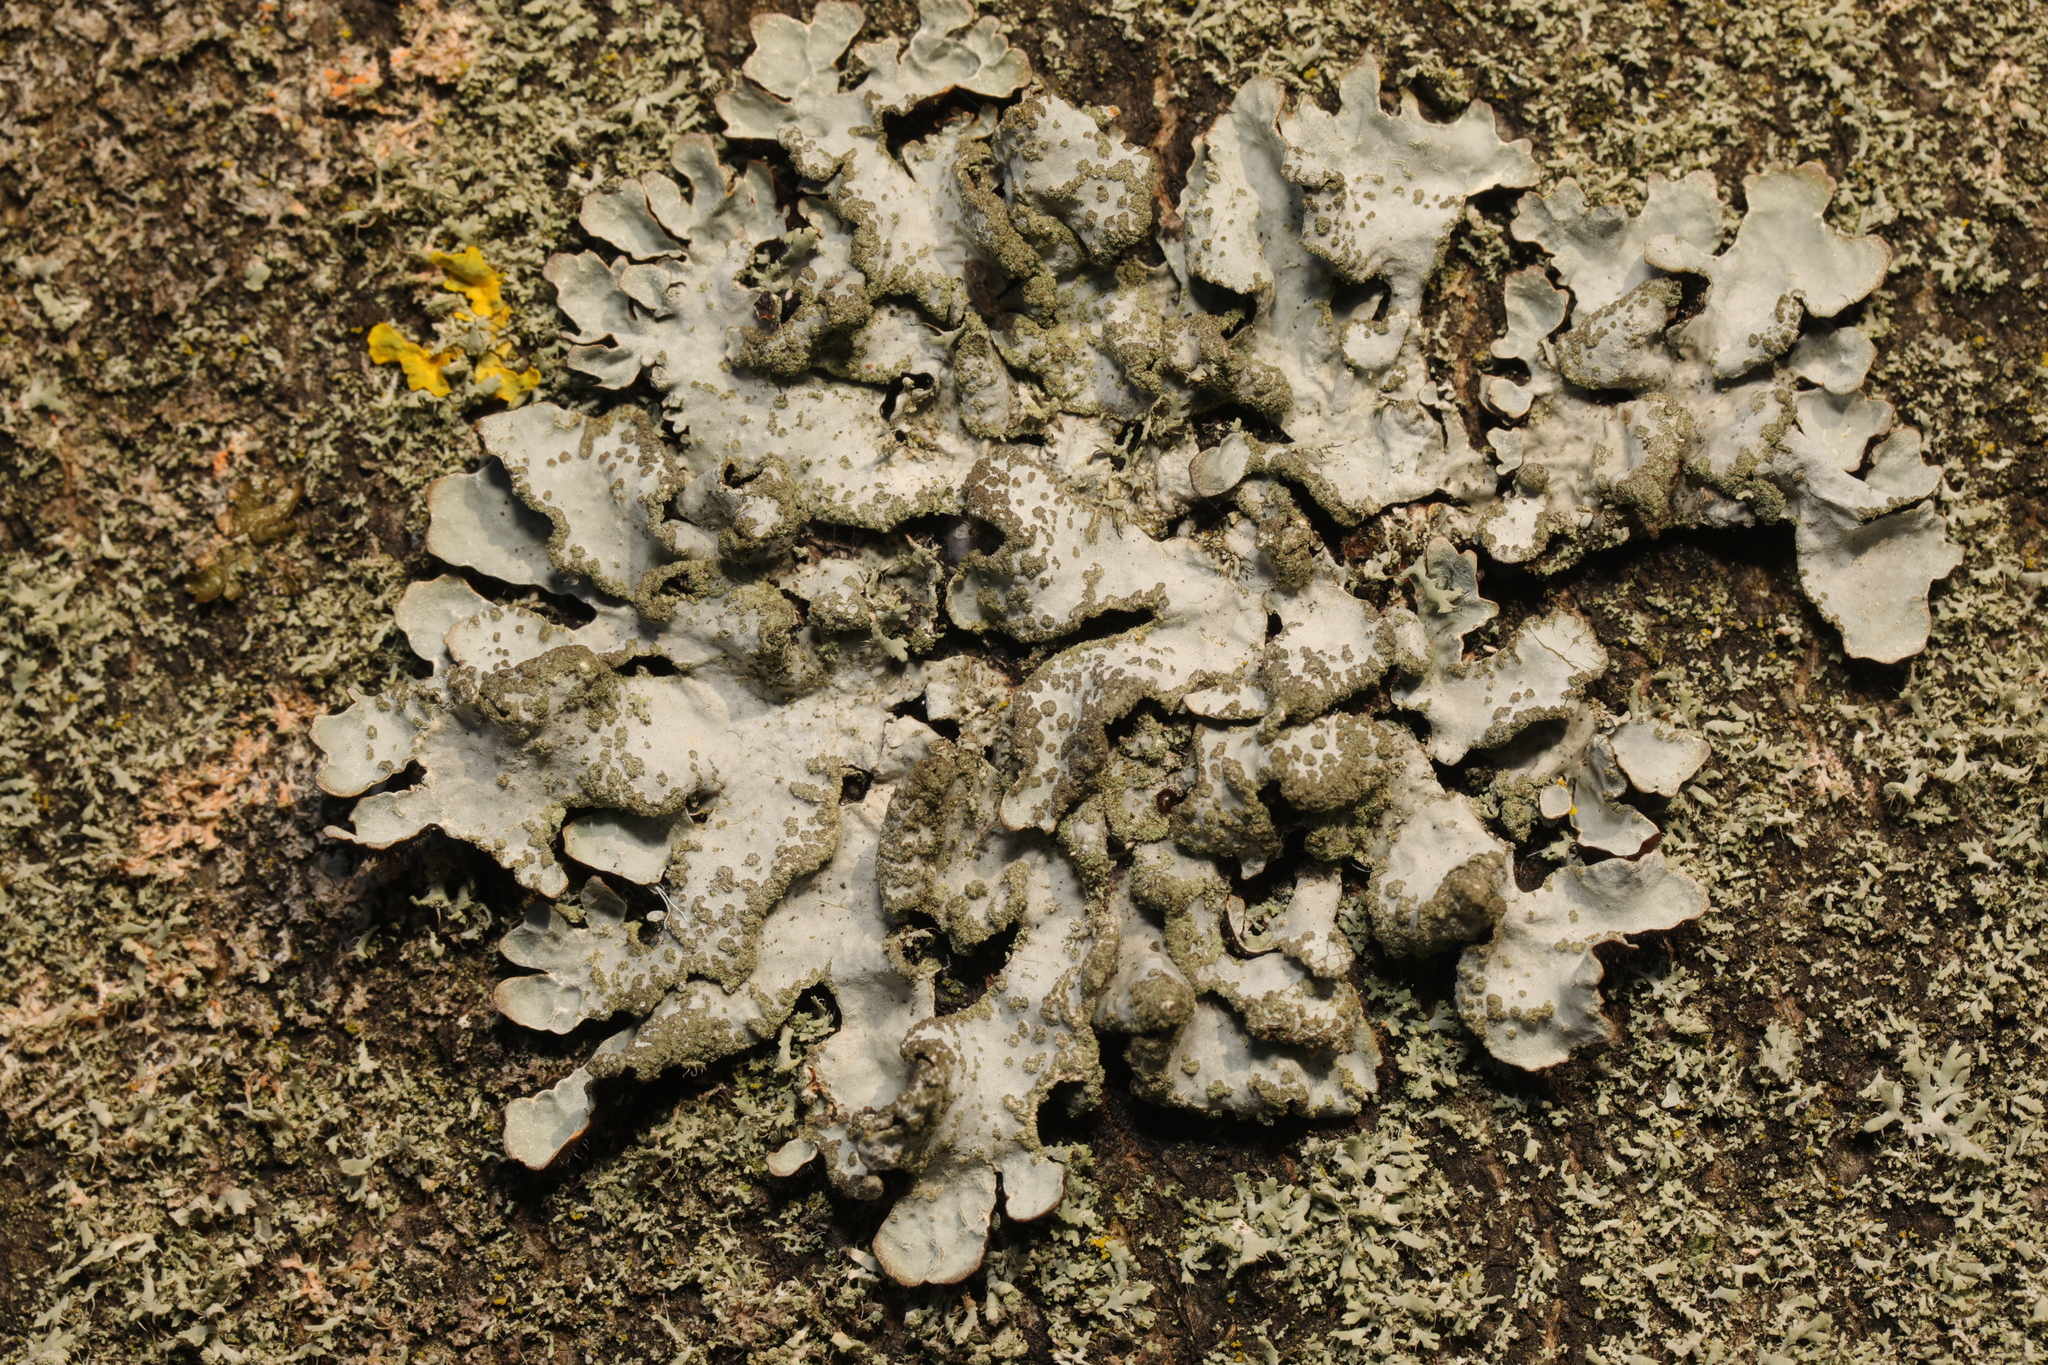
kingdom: Fungi
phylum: Ascomycota
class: Lecanoromycetes
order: Lecanorales
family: Parmeliaceae
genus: Parmelia
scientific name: Parmelia sulcata
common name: Netted shield lichen
